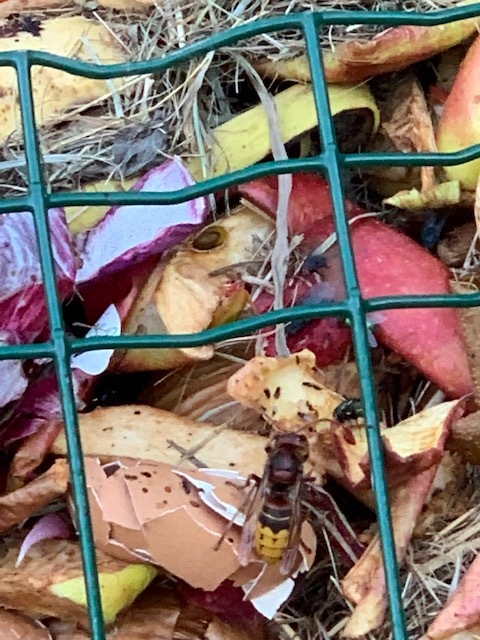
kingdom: Animalia
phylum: Arthropoda
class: Insecta
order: Hymenoptera
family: Vespidae
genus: Vespa
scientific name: Vespa crabro
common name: Hornet
